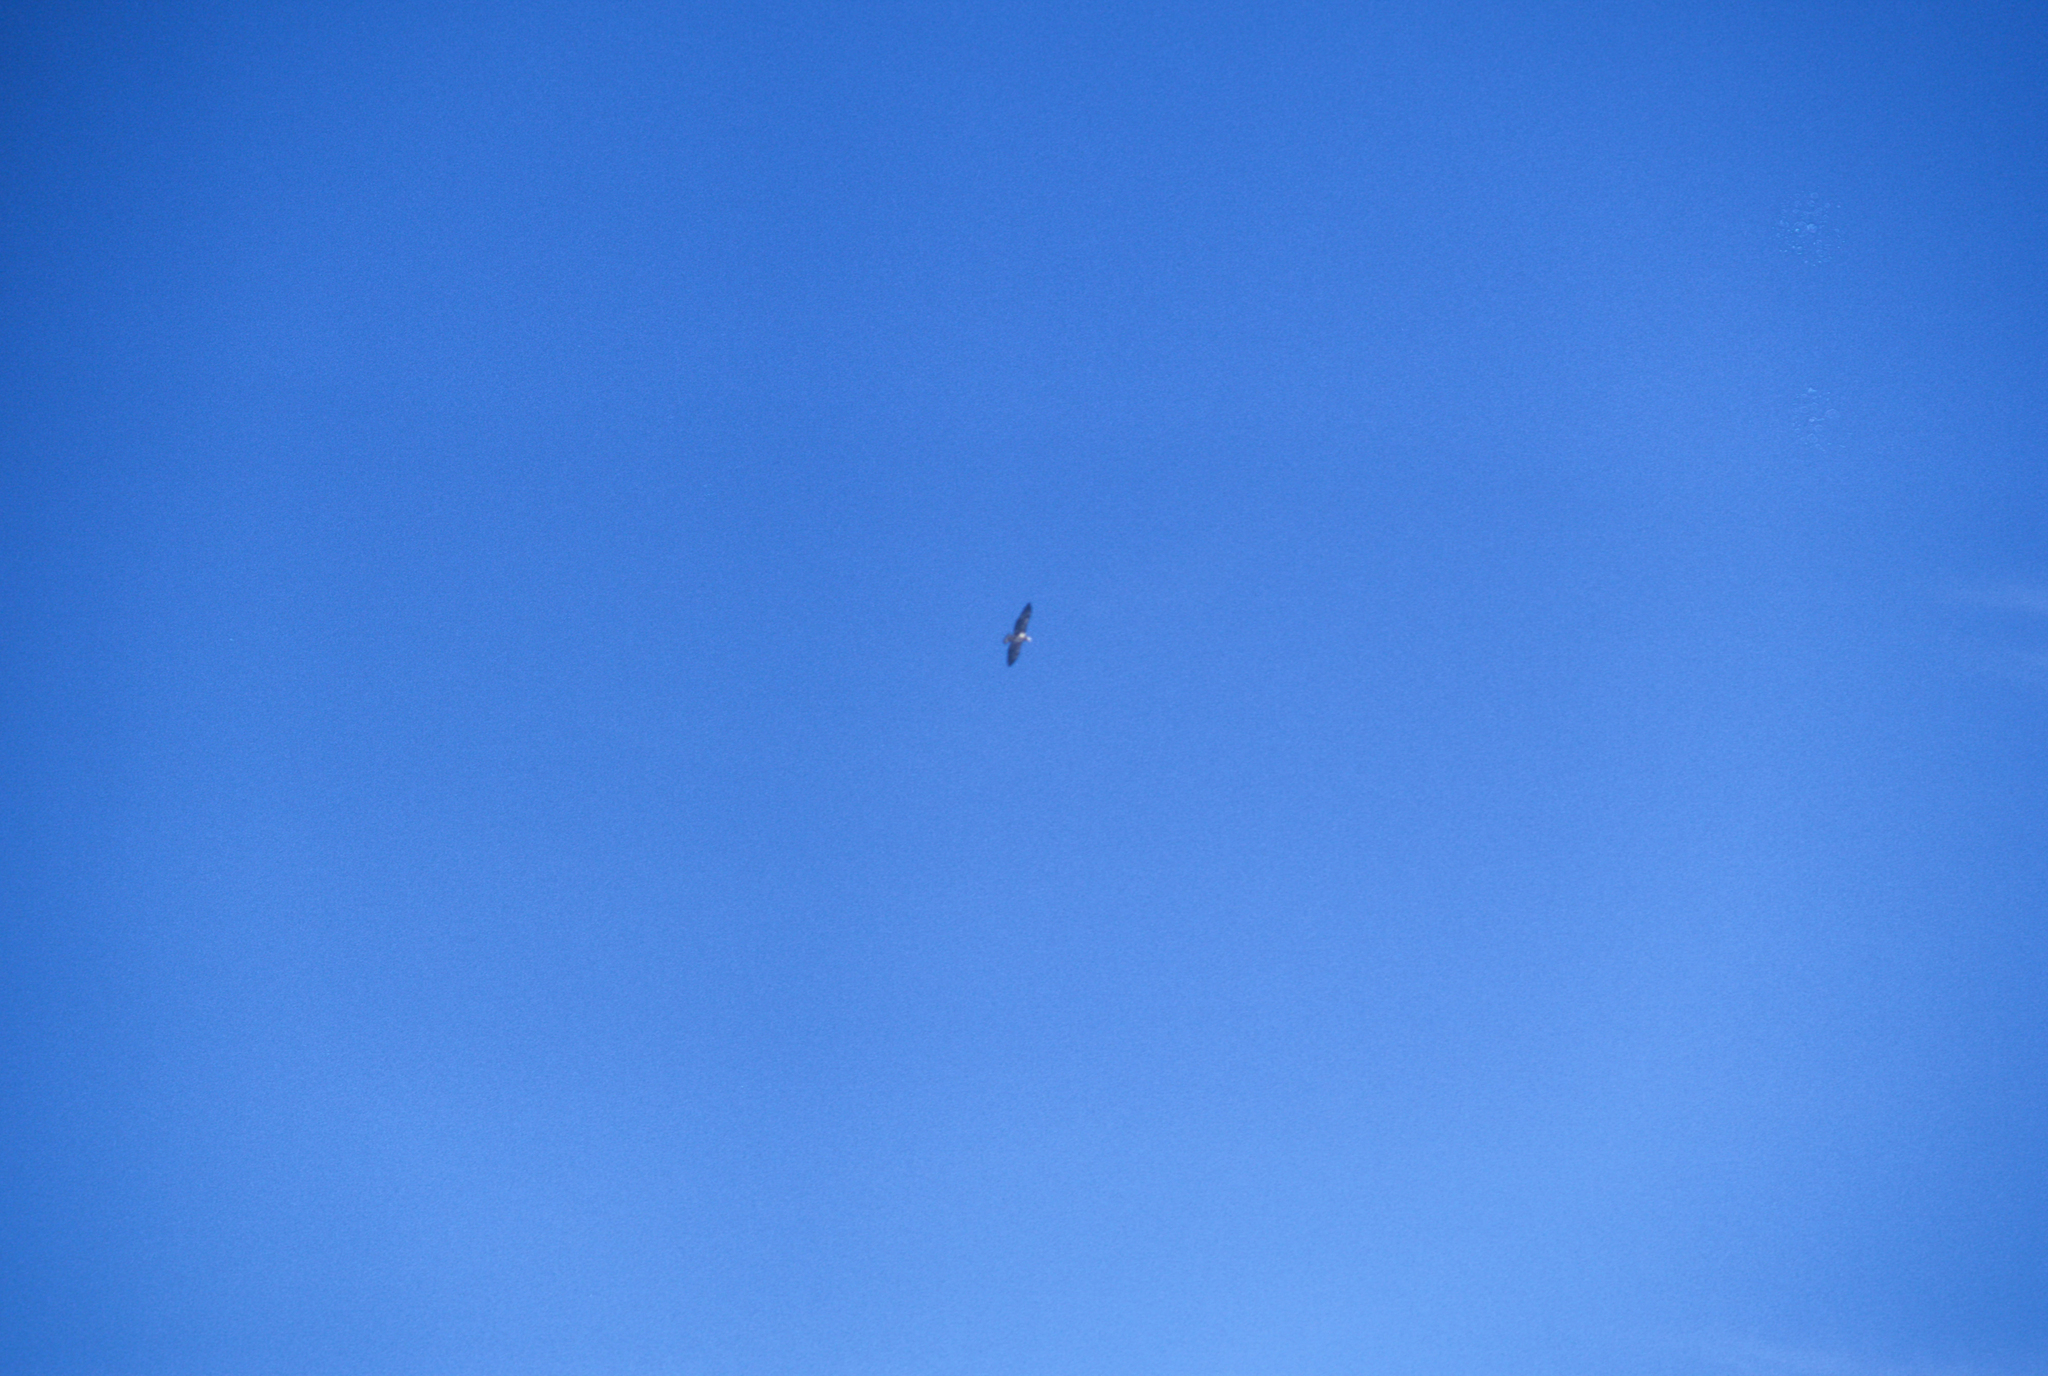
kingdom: Animalia
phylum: Chordata
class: Aves
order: Accipitriformes
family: Accipitridae
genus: Haliaeetus
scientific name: Haliaeetus leucocephalus
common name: Bald eagle
